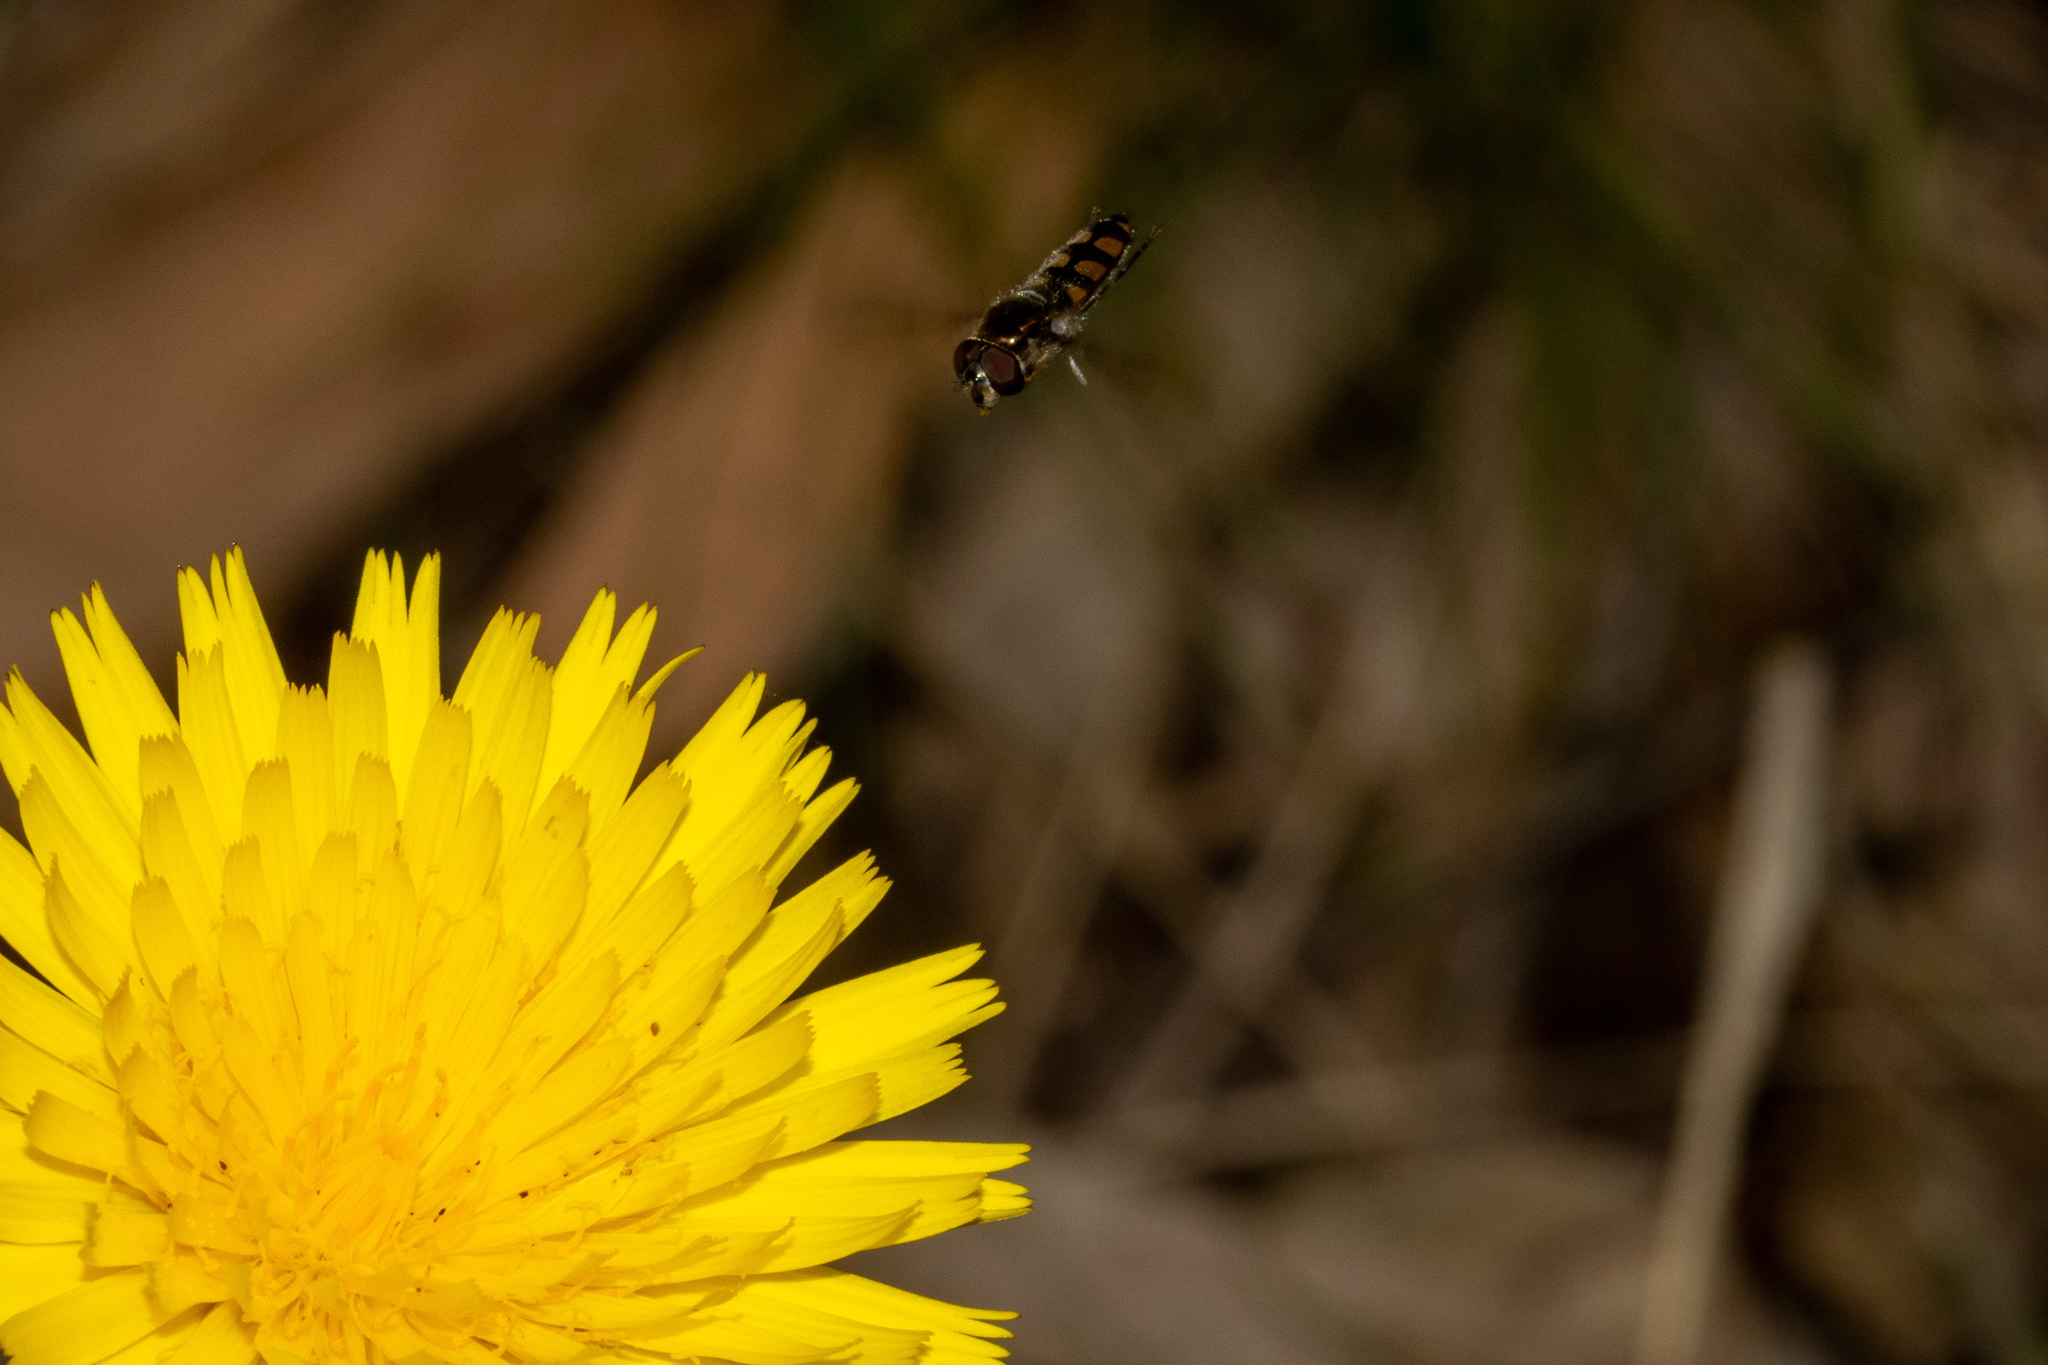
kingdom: Animalia
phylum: Arthropoda
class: Insecta
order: Diptera
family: Syrphidae
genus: Melangyna
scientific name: Melangyna viridiceps
